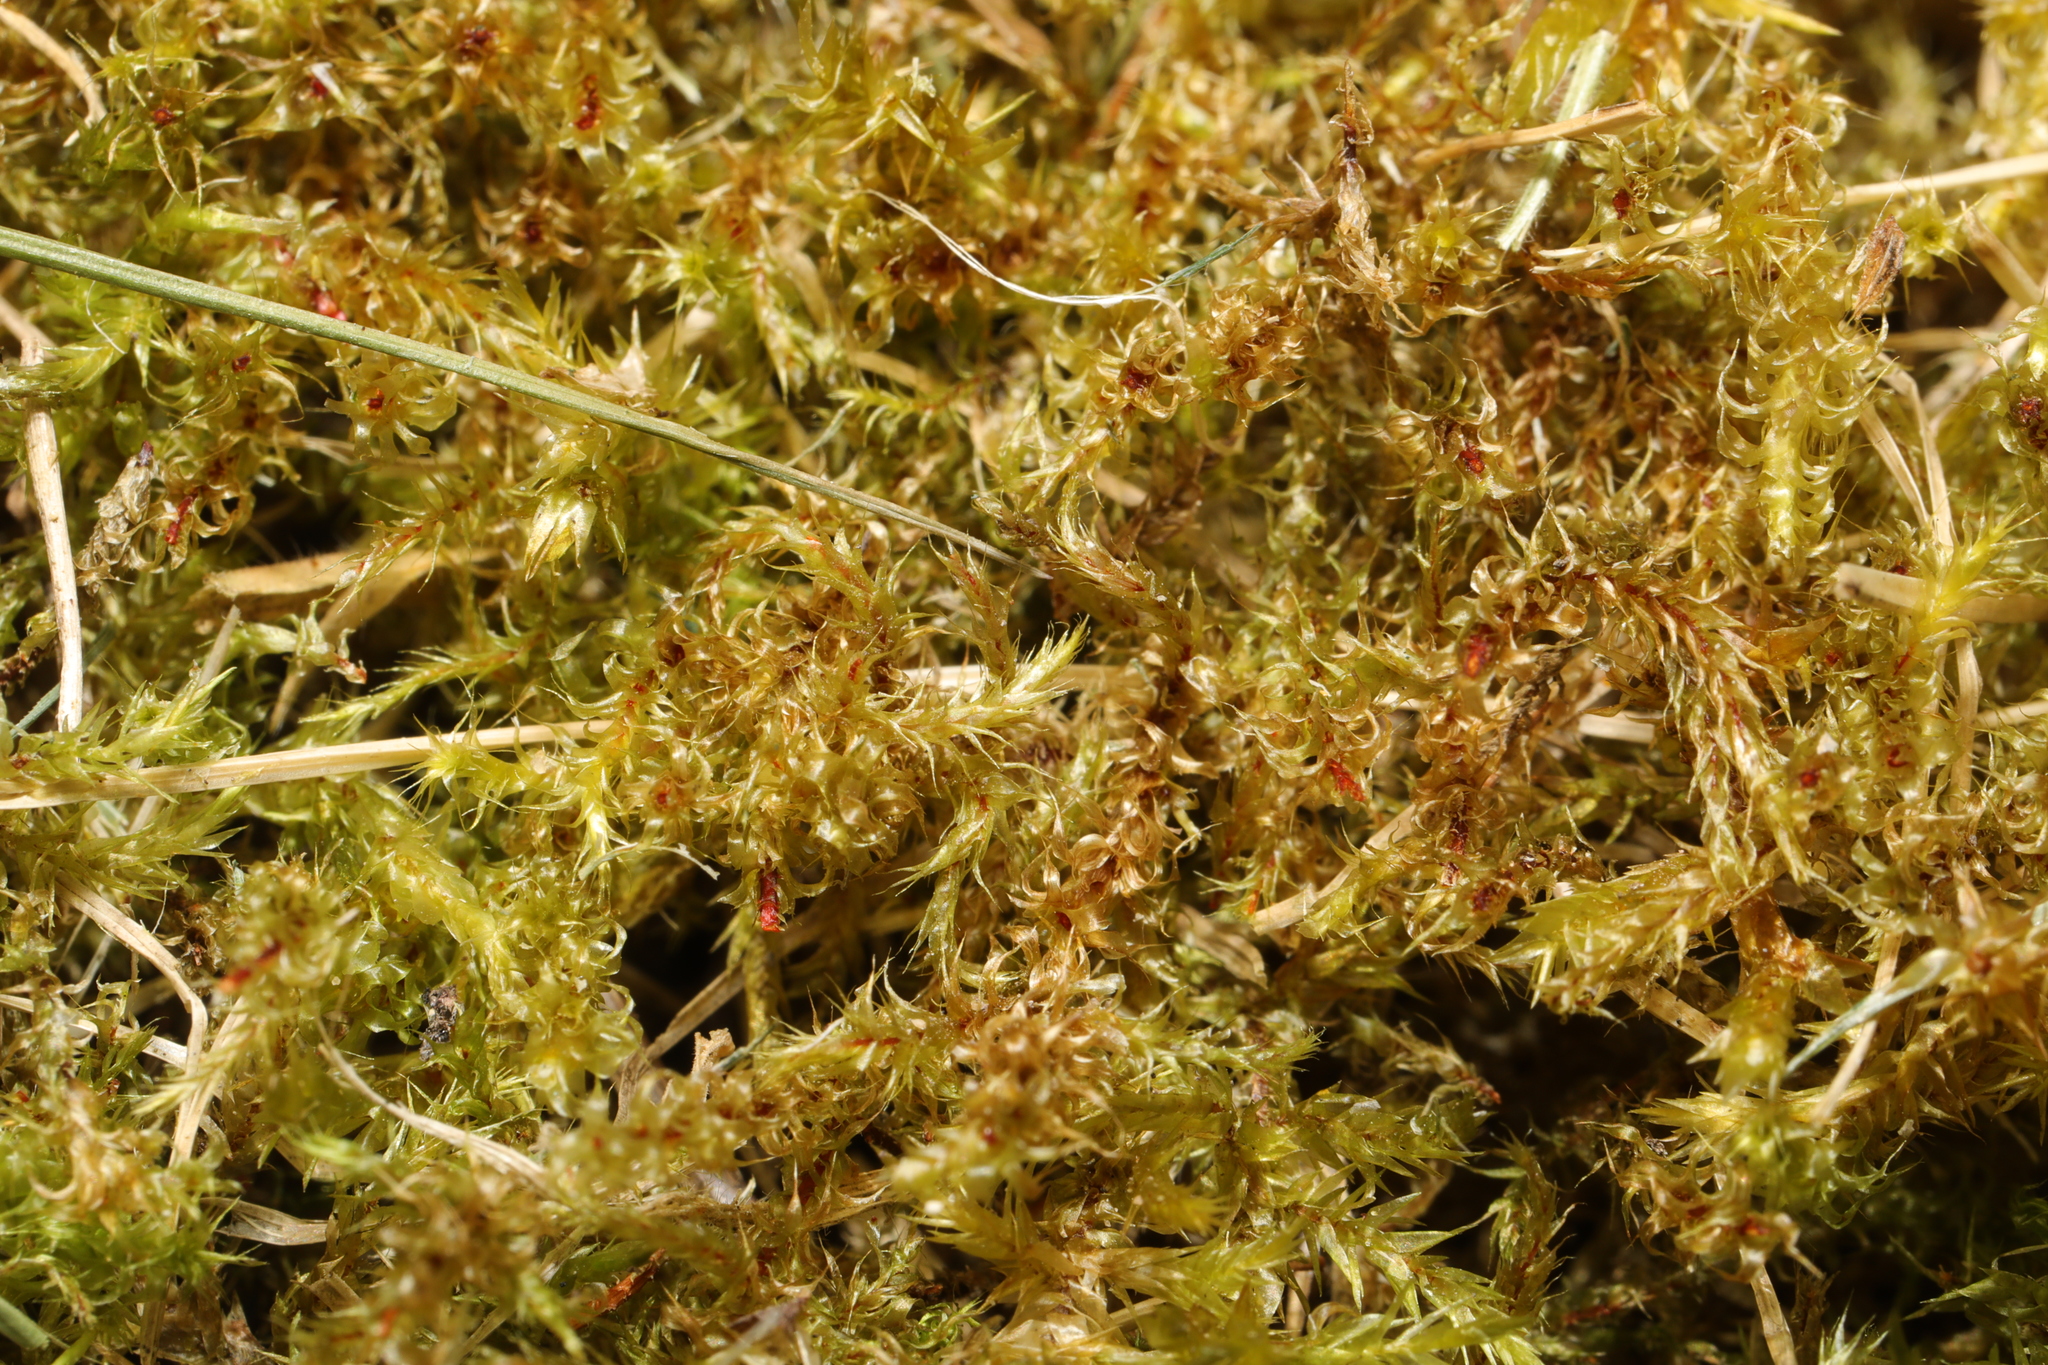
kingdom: Plantae
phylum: Bryophyta
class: Bryopsida
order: Hypnales
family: Hylocomiaceae
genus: Rhytidiadelphus
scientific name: Rhytidiadelphus squarrosus
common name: Springy turf-moss
